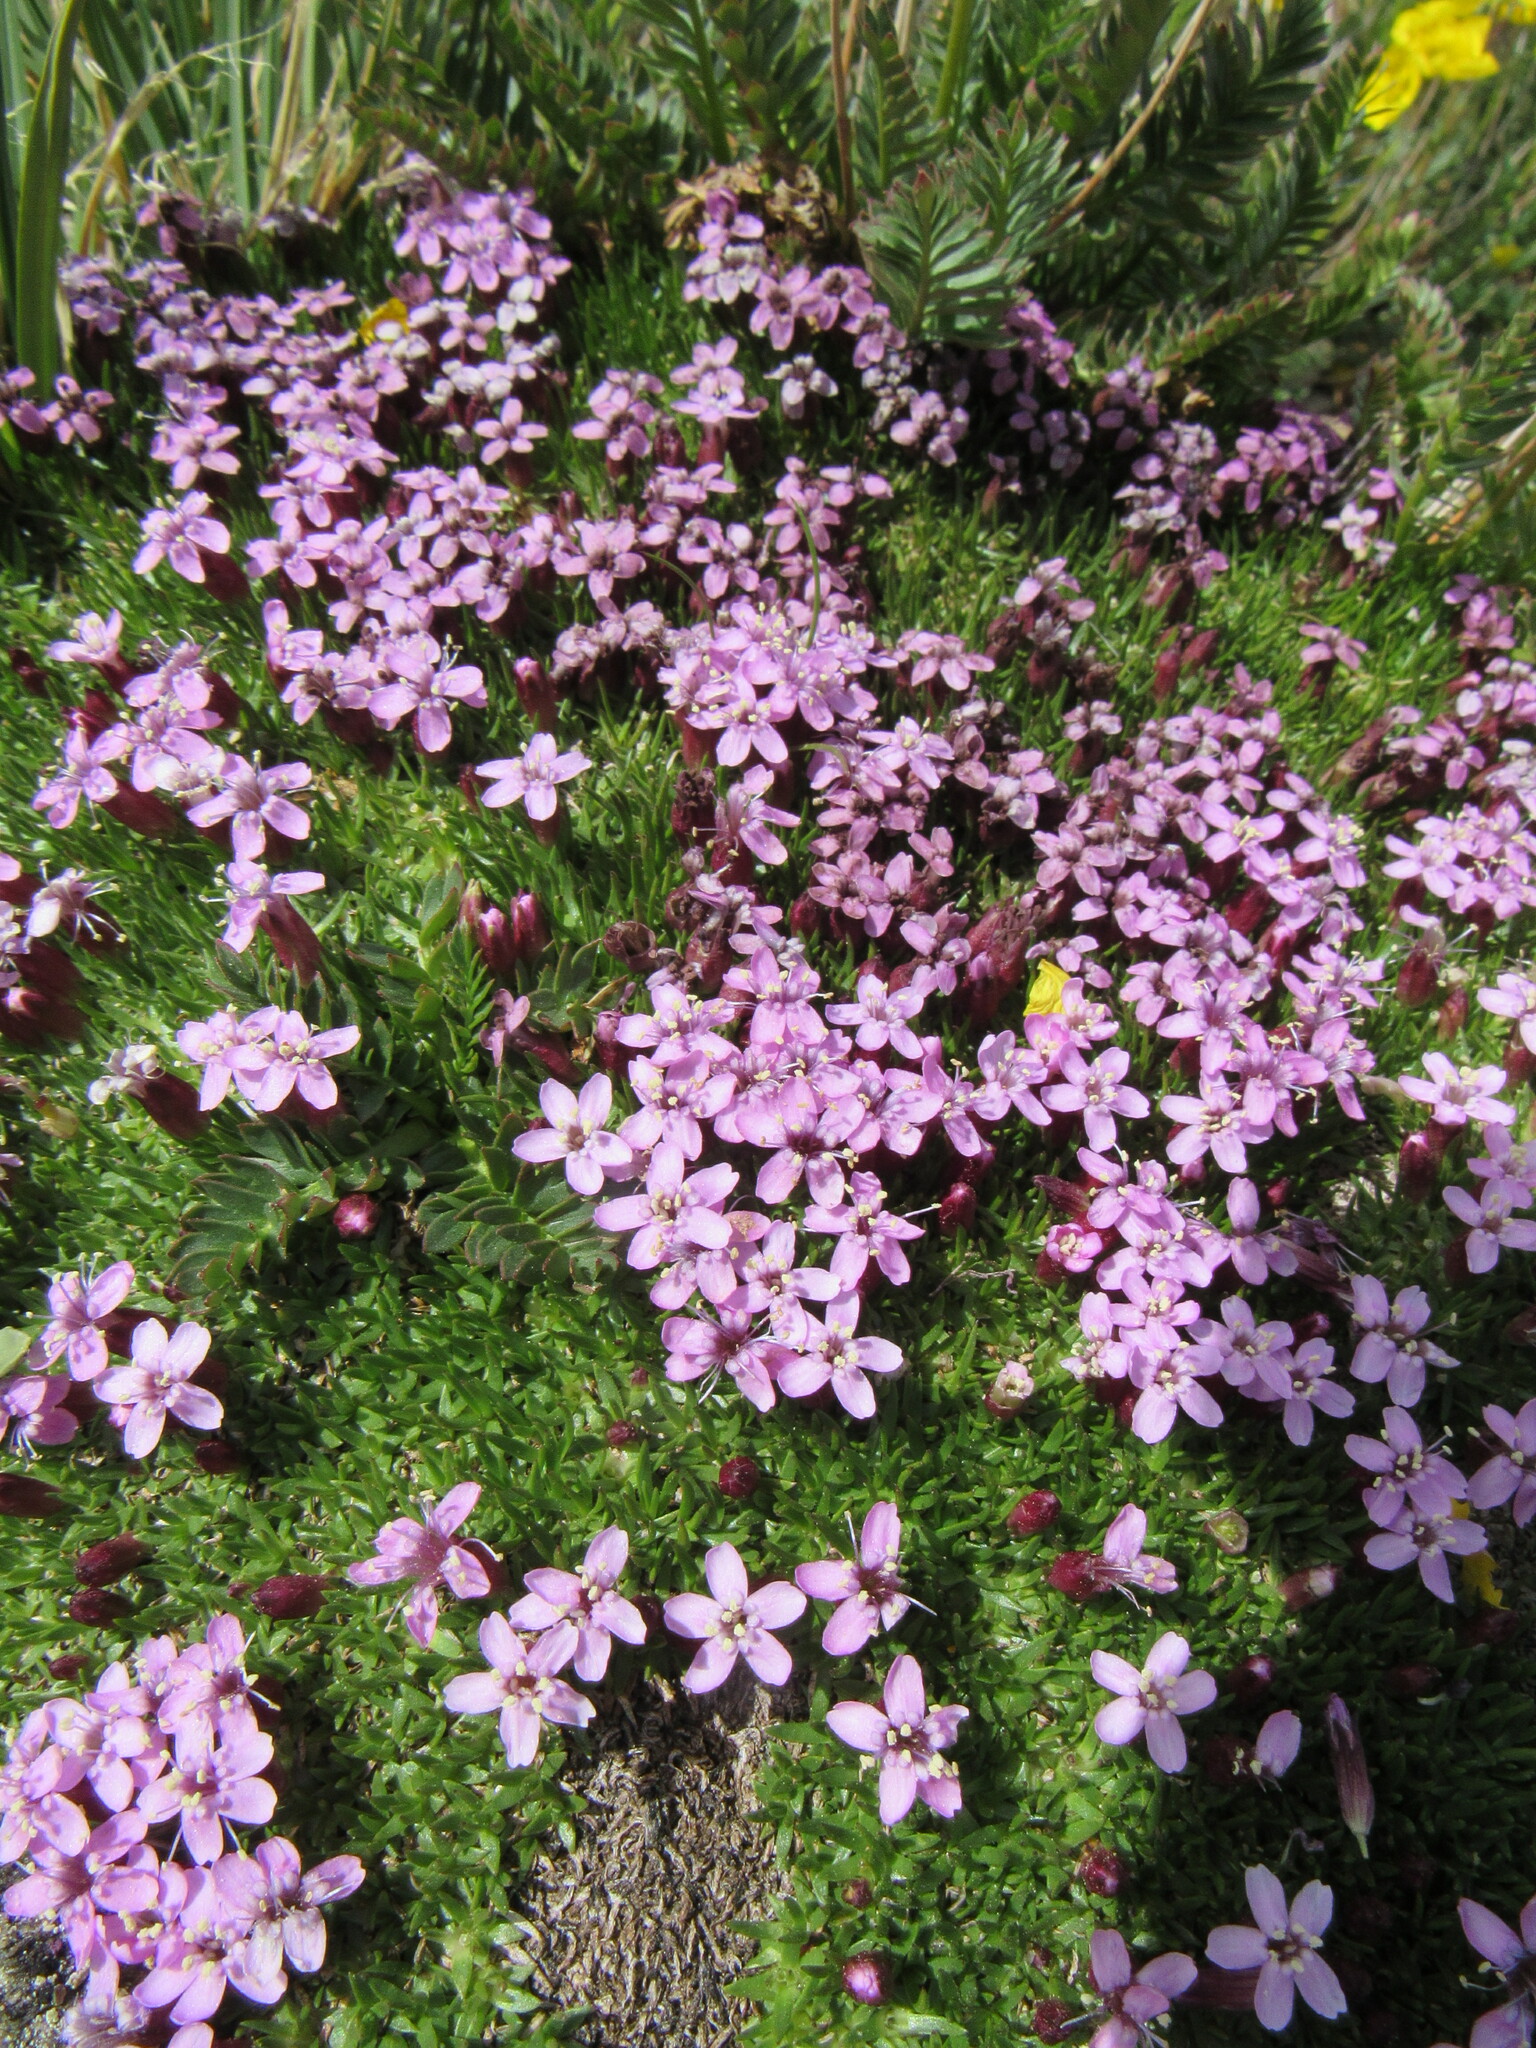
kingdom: Plantae
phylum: Tracheophyta
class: Magnoliopsida
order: Caryophyllales
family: Caryophyllaceae
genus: Silene
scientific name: Silene acaulis
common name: Moss campion
